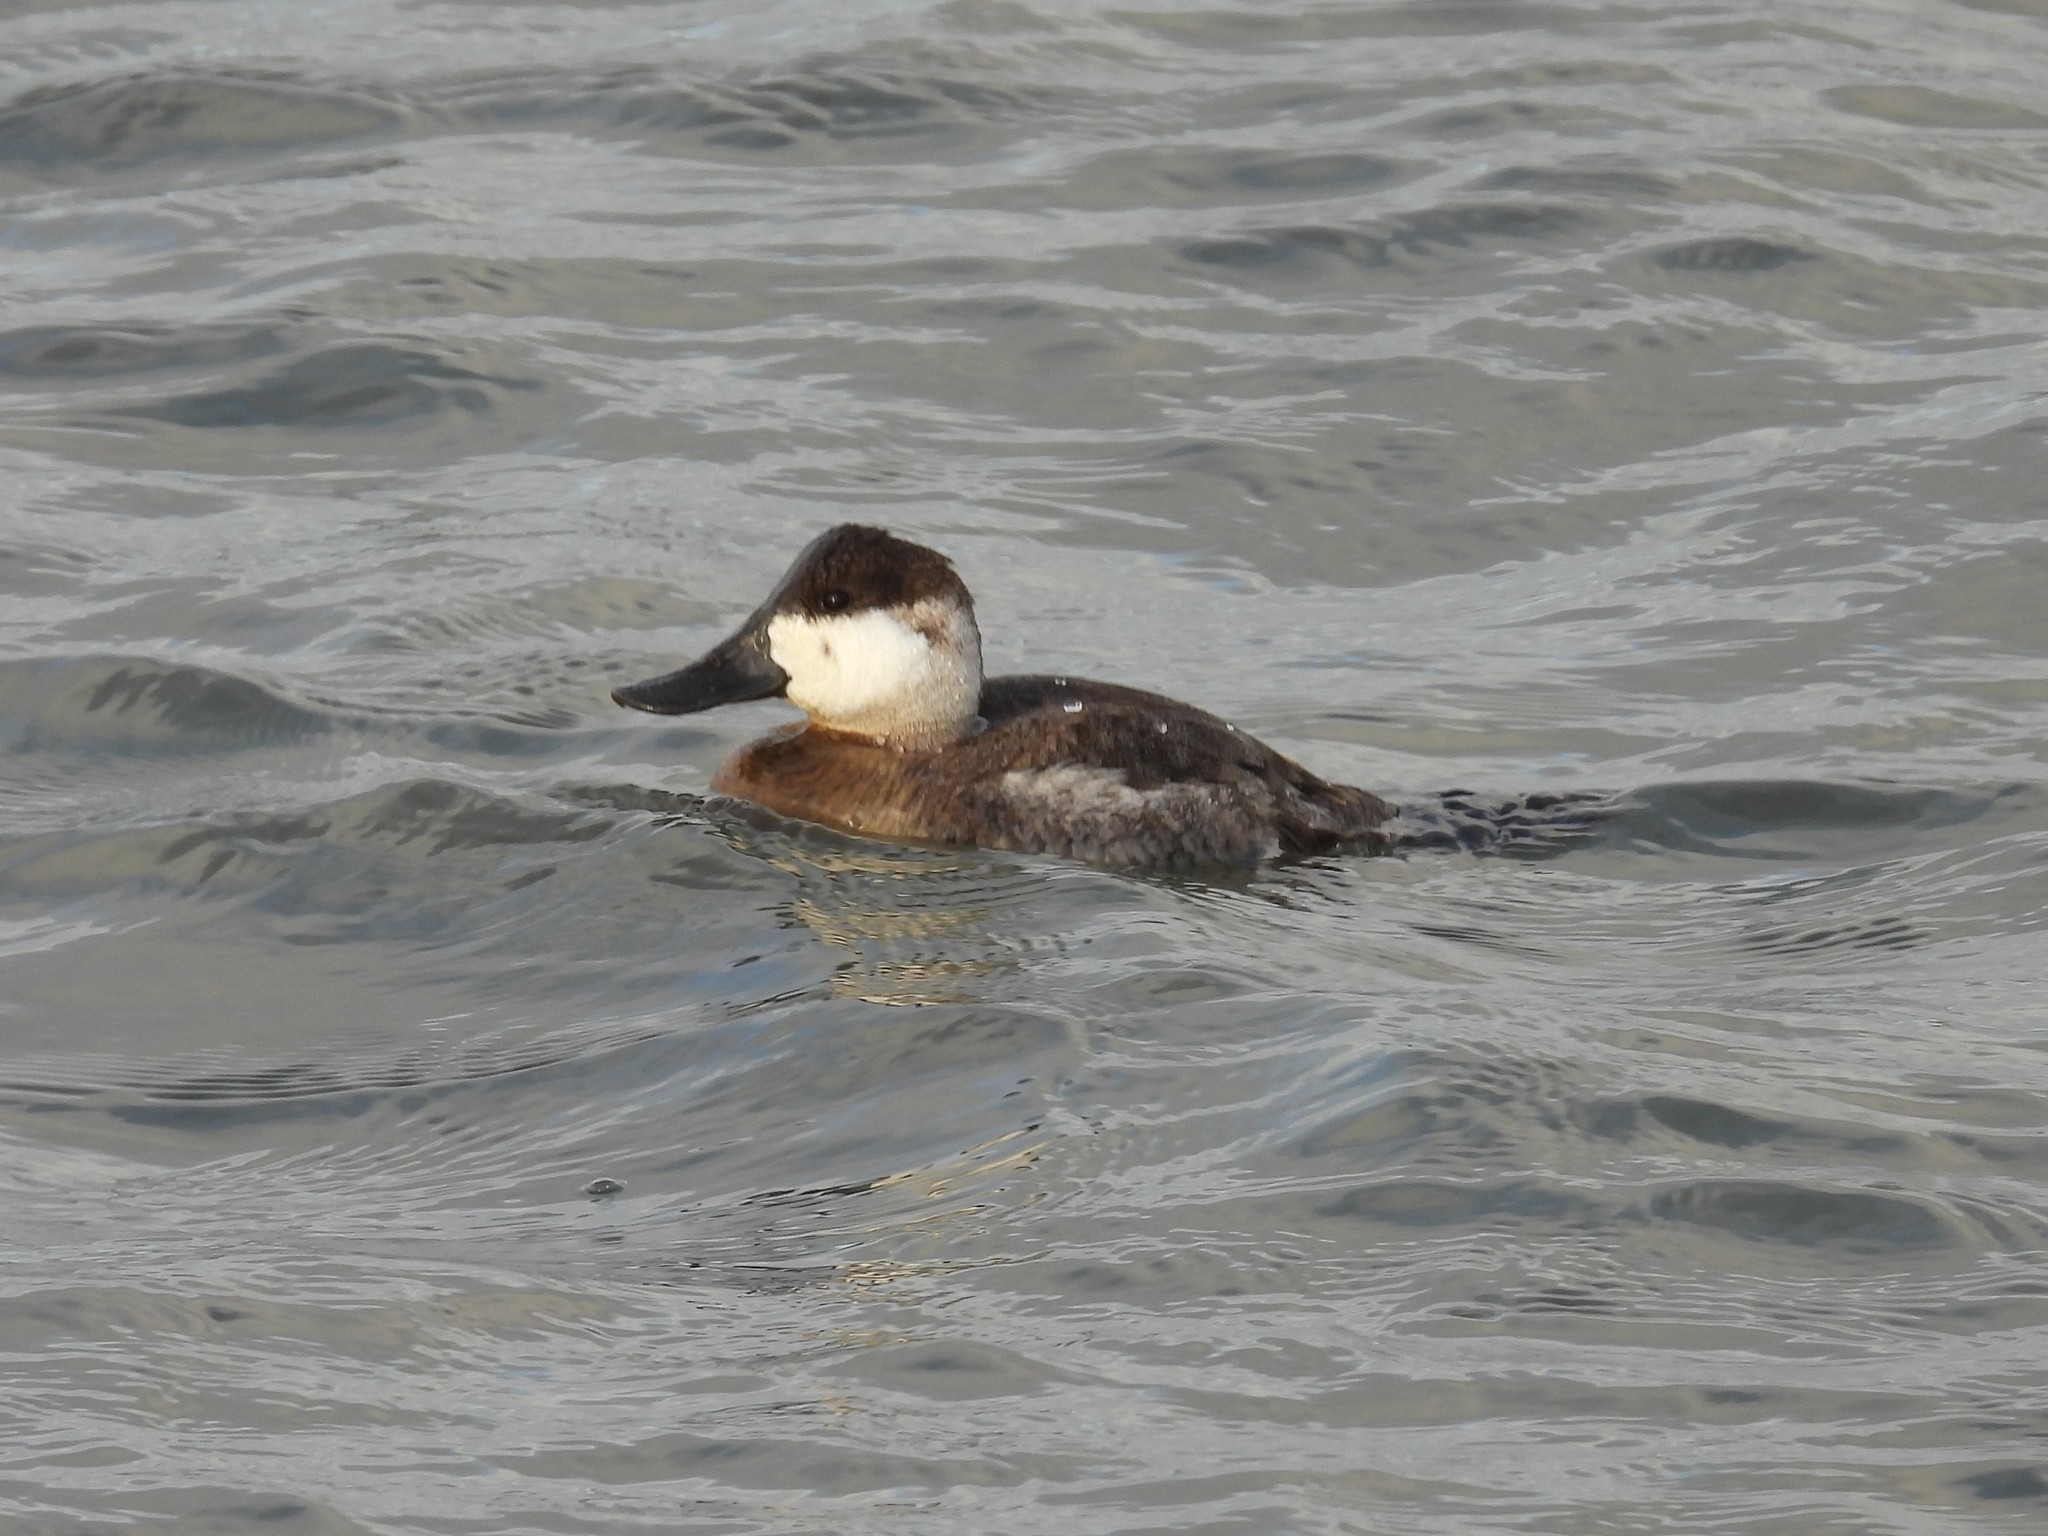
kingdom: Animalia
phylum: Chordata
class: Aves
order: Anseriformes
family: Anatidae
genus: Oxyura
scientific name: Oxyura jamaicensis
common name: Ruddy duck
